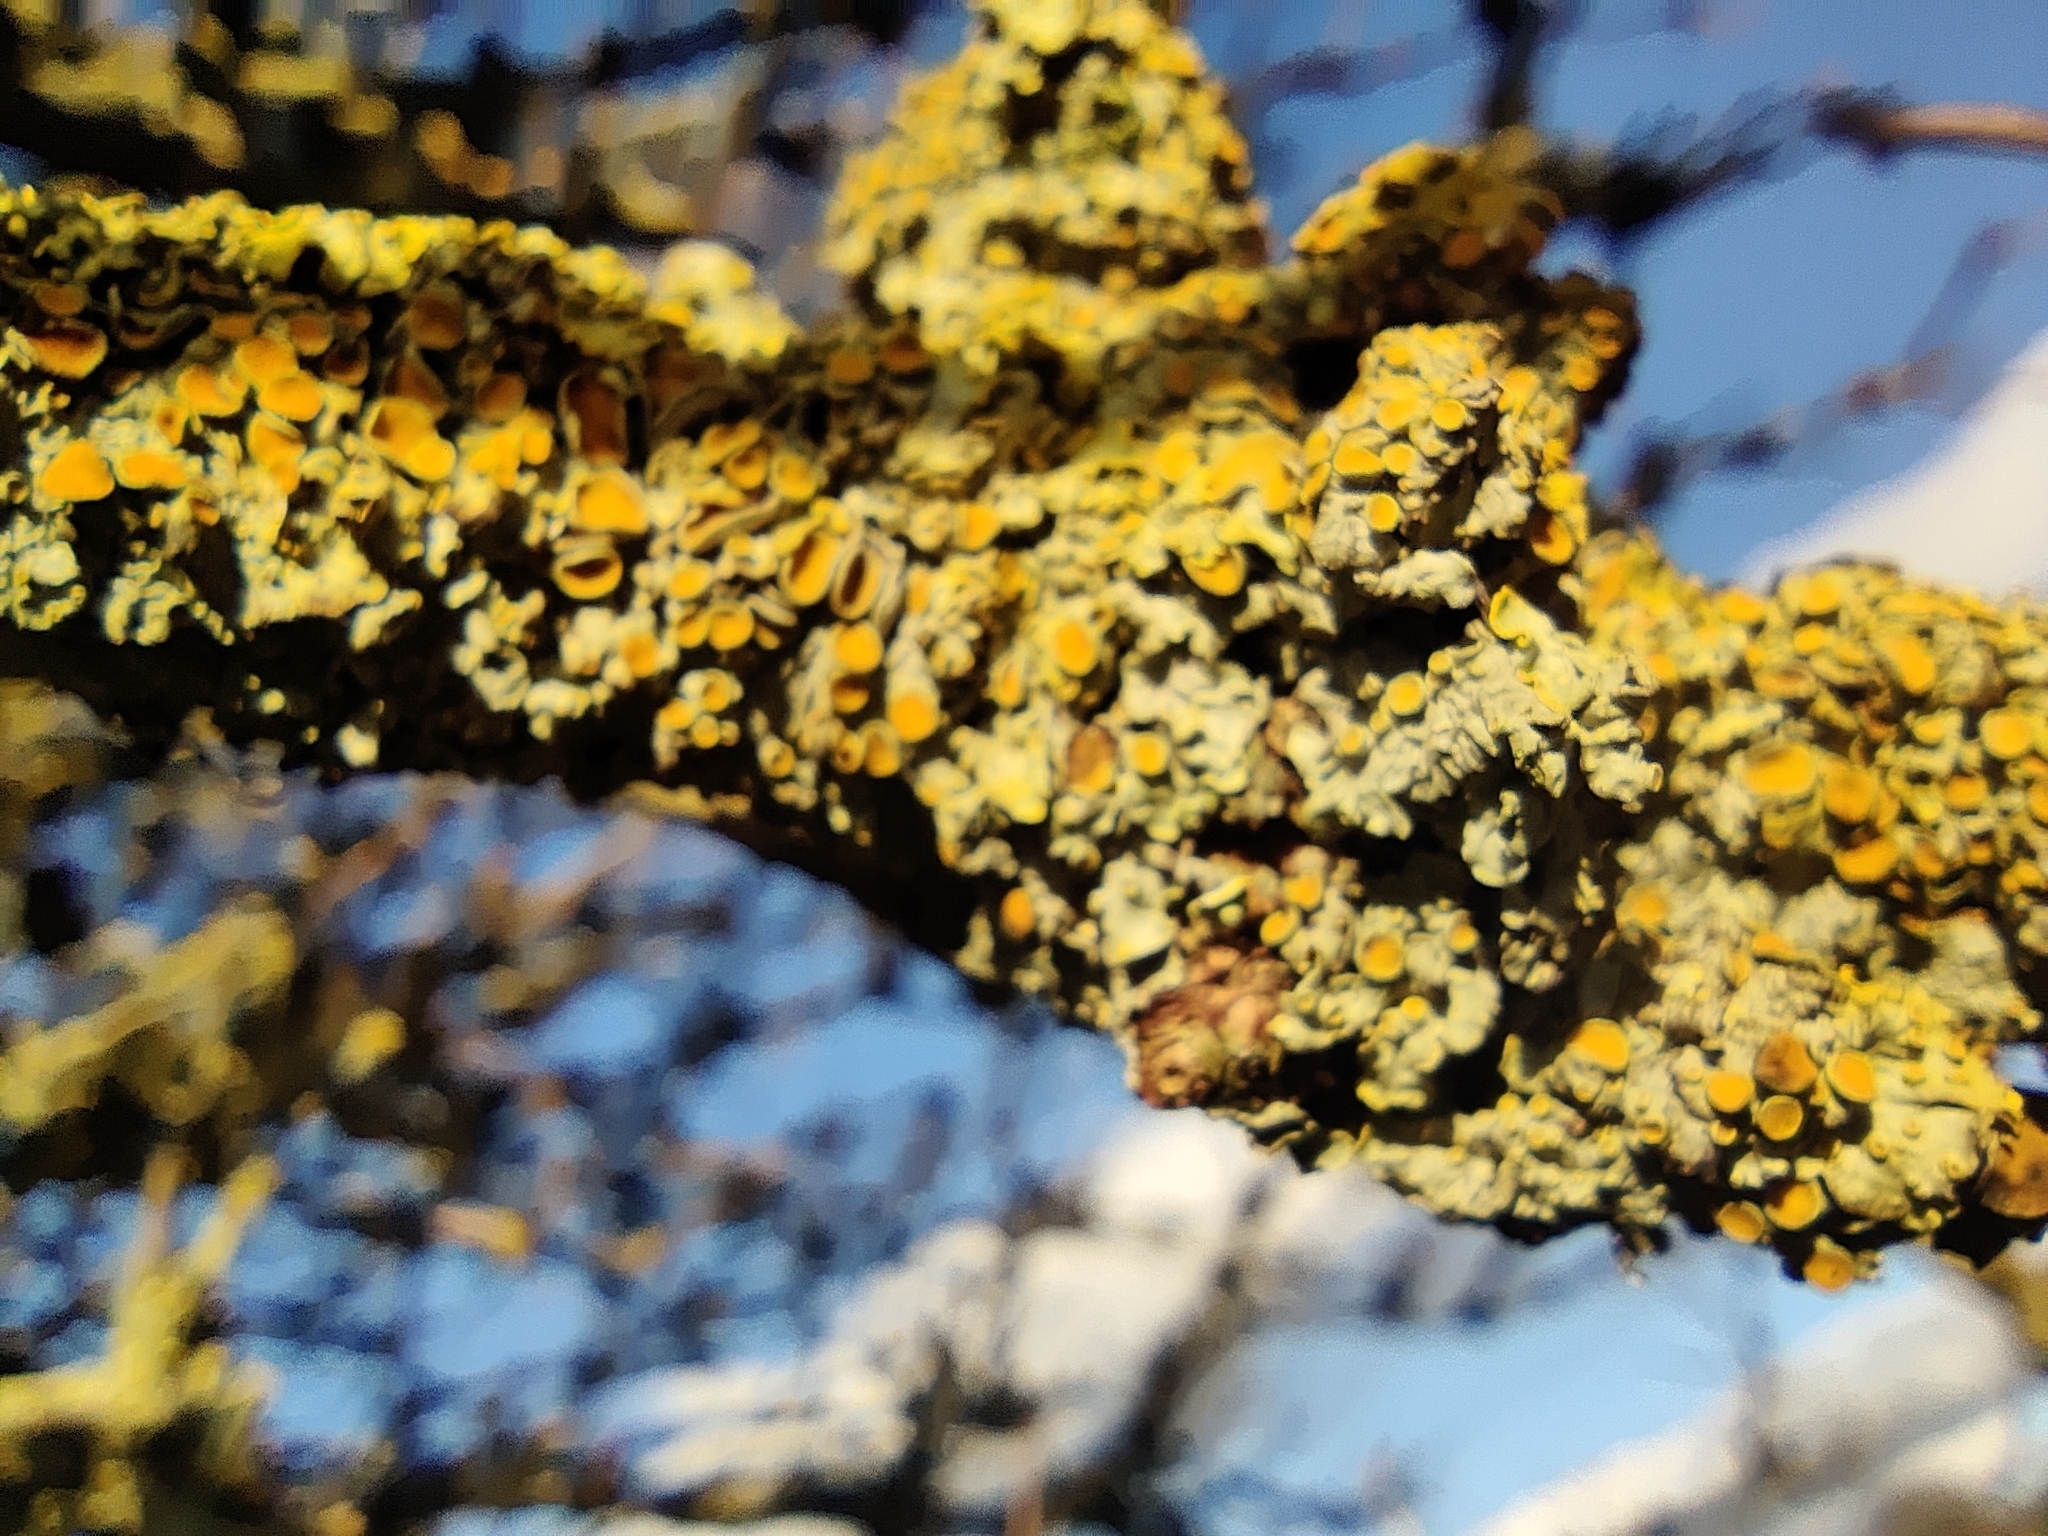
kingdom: Fungi
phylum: Ascomycota
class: Lecanoromycetes
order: Teloschistales
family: Teloschistaceae
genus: Xanthoria
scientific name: Xanthoria parietina
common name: Common orange lichen
